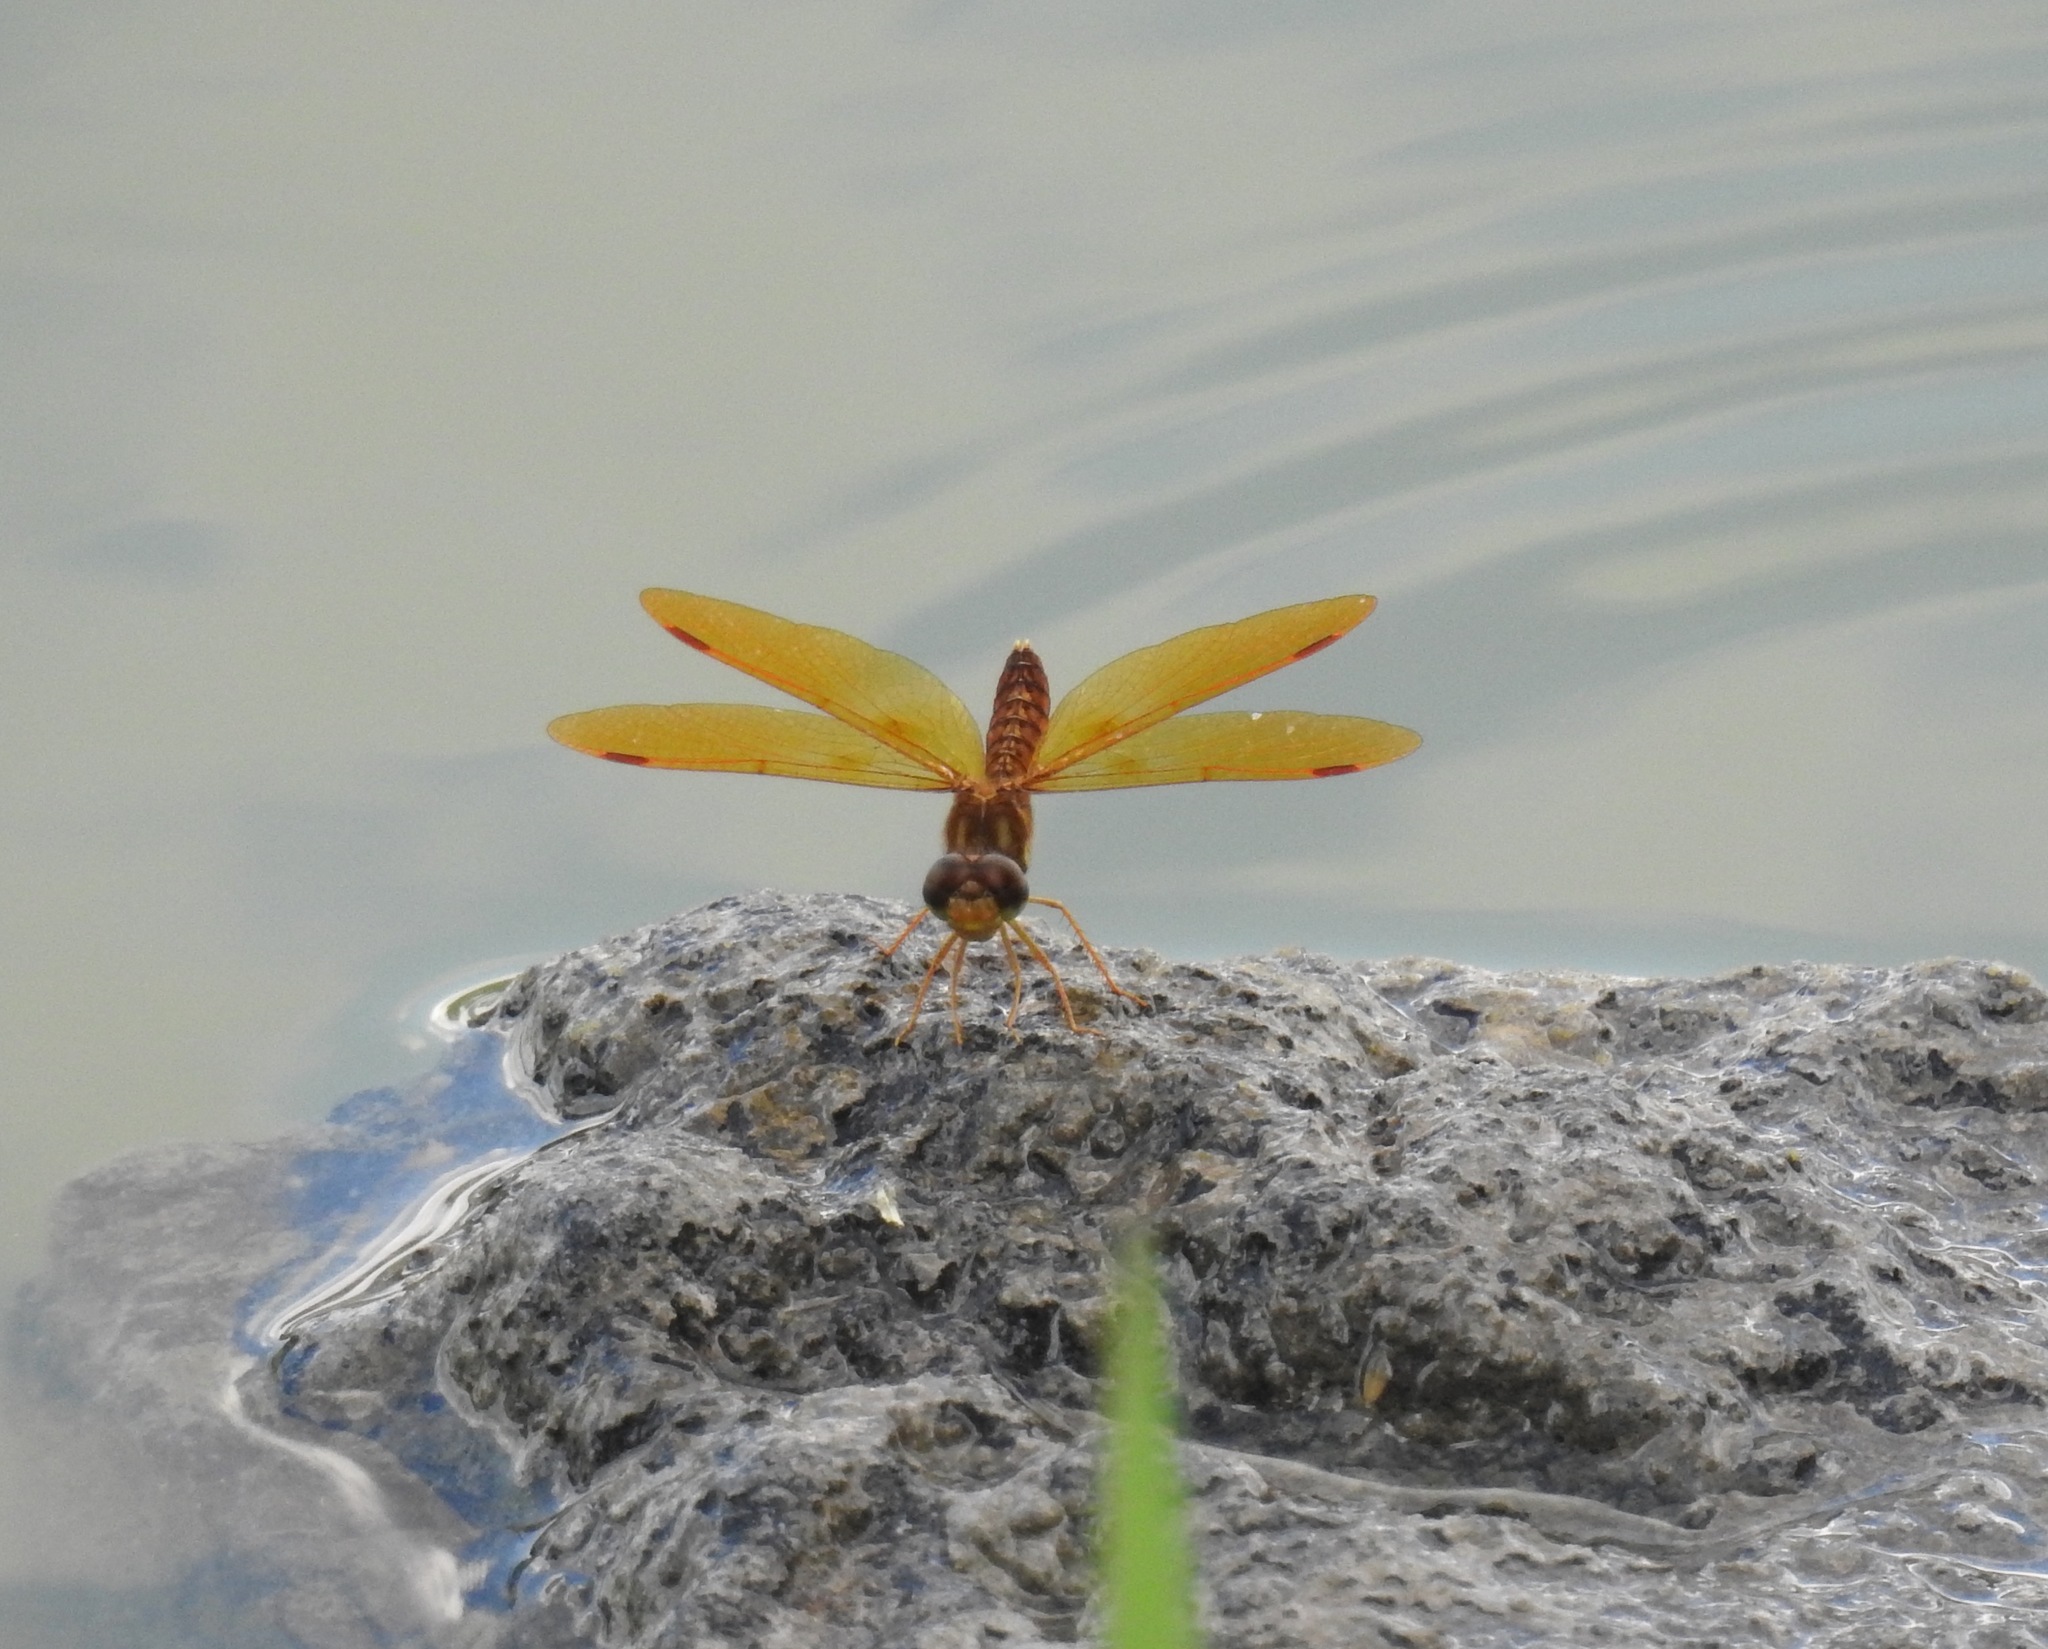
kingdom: Animalia
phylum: Arthropoda
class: Insecta
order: Odonata
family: Libellulidae
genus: Perithemis
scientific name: Perithemis tenera
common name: Eastern amberwing
